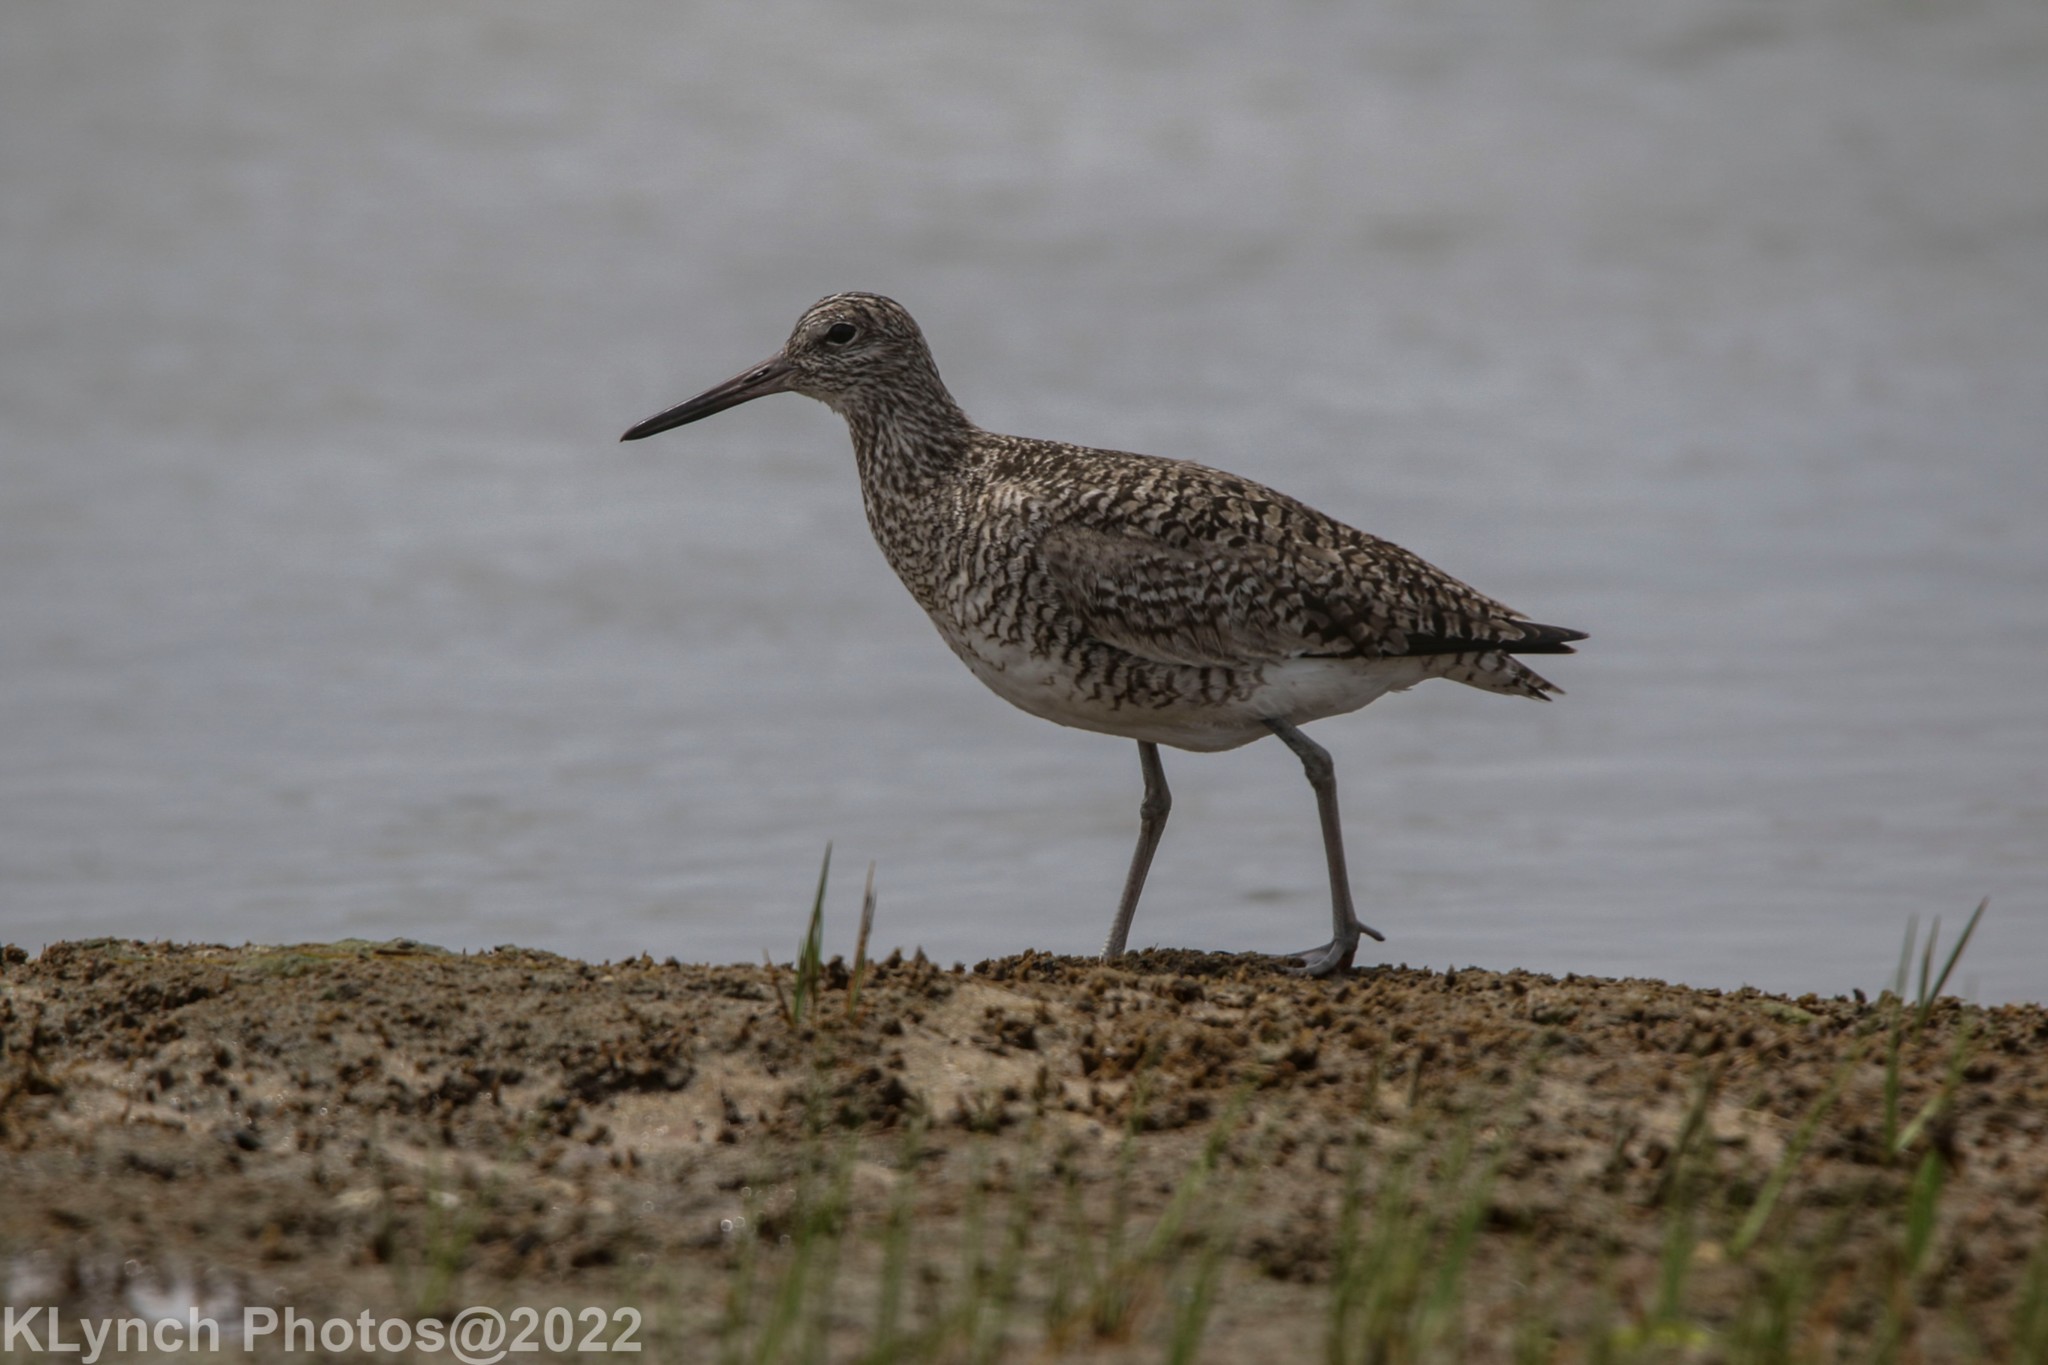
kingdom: Animalia
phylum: Chordata
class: Aves
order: Charadriiformes
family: Scolopacidae
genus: Tringa
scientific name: Tringa semipalmata
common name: Willet
